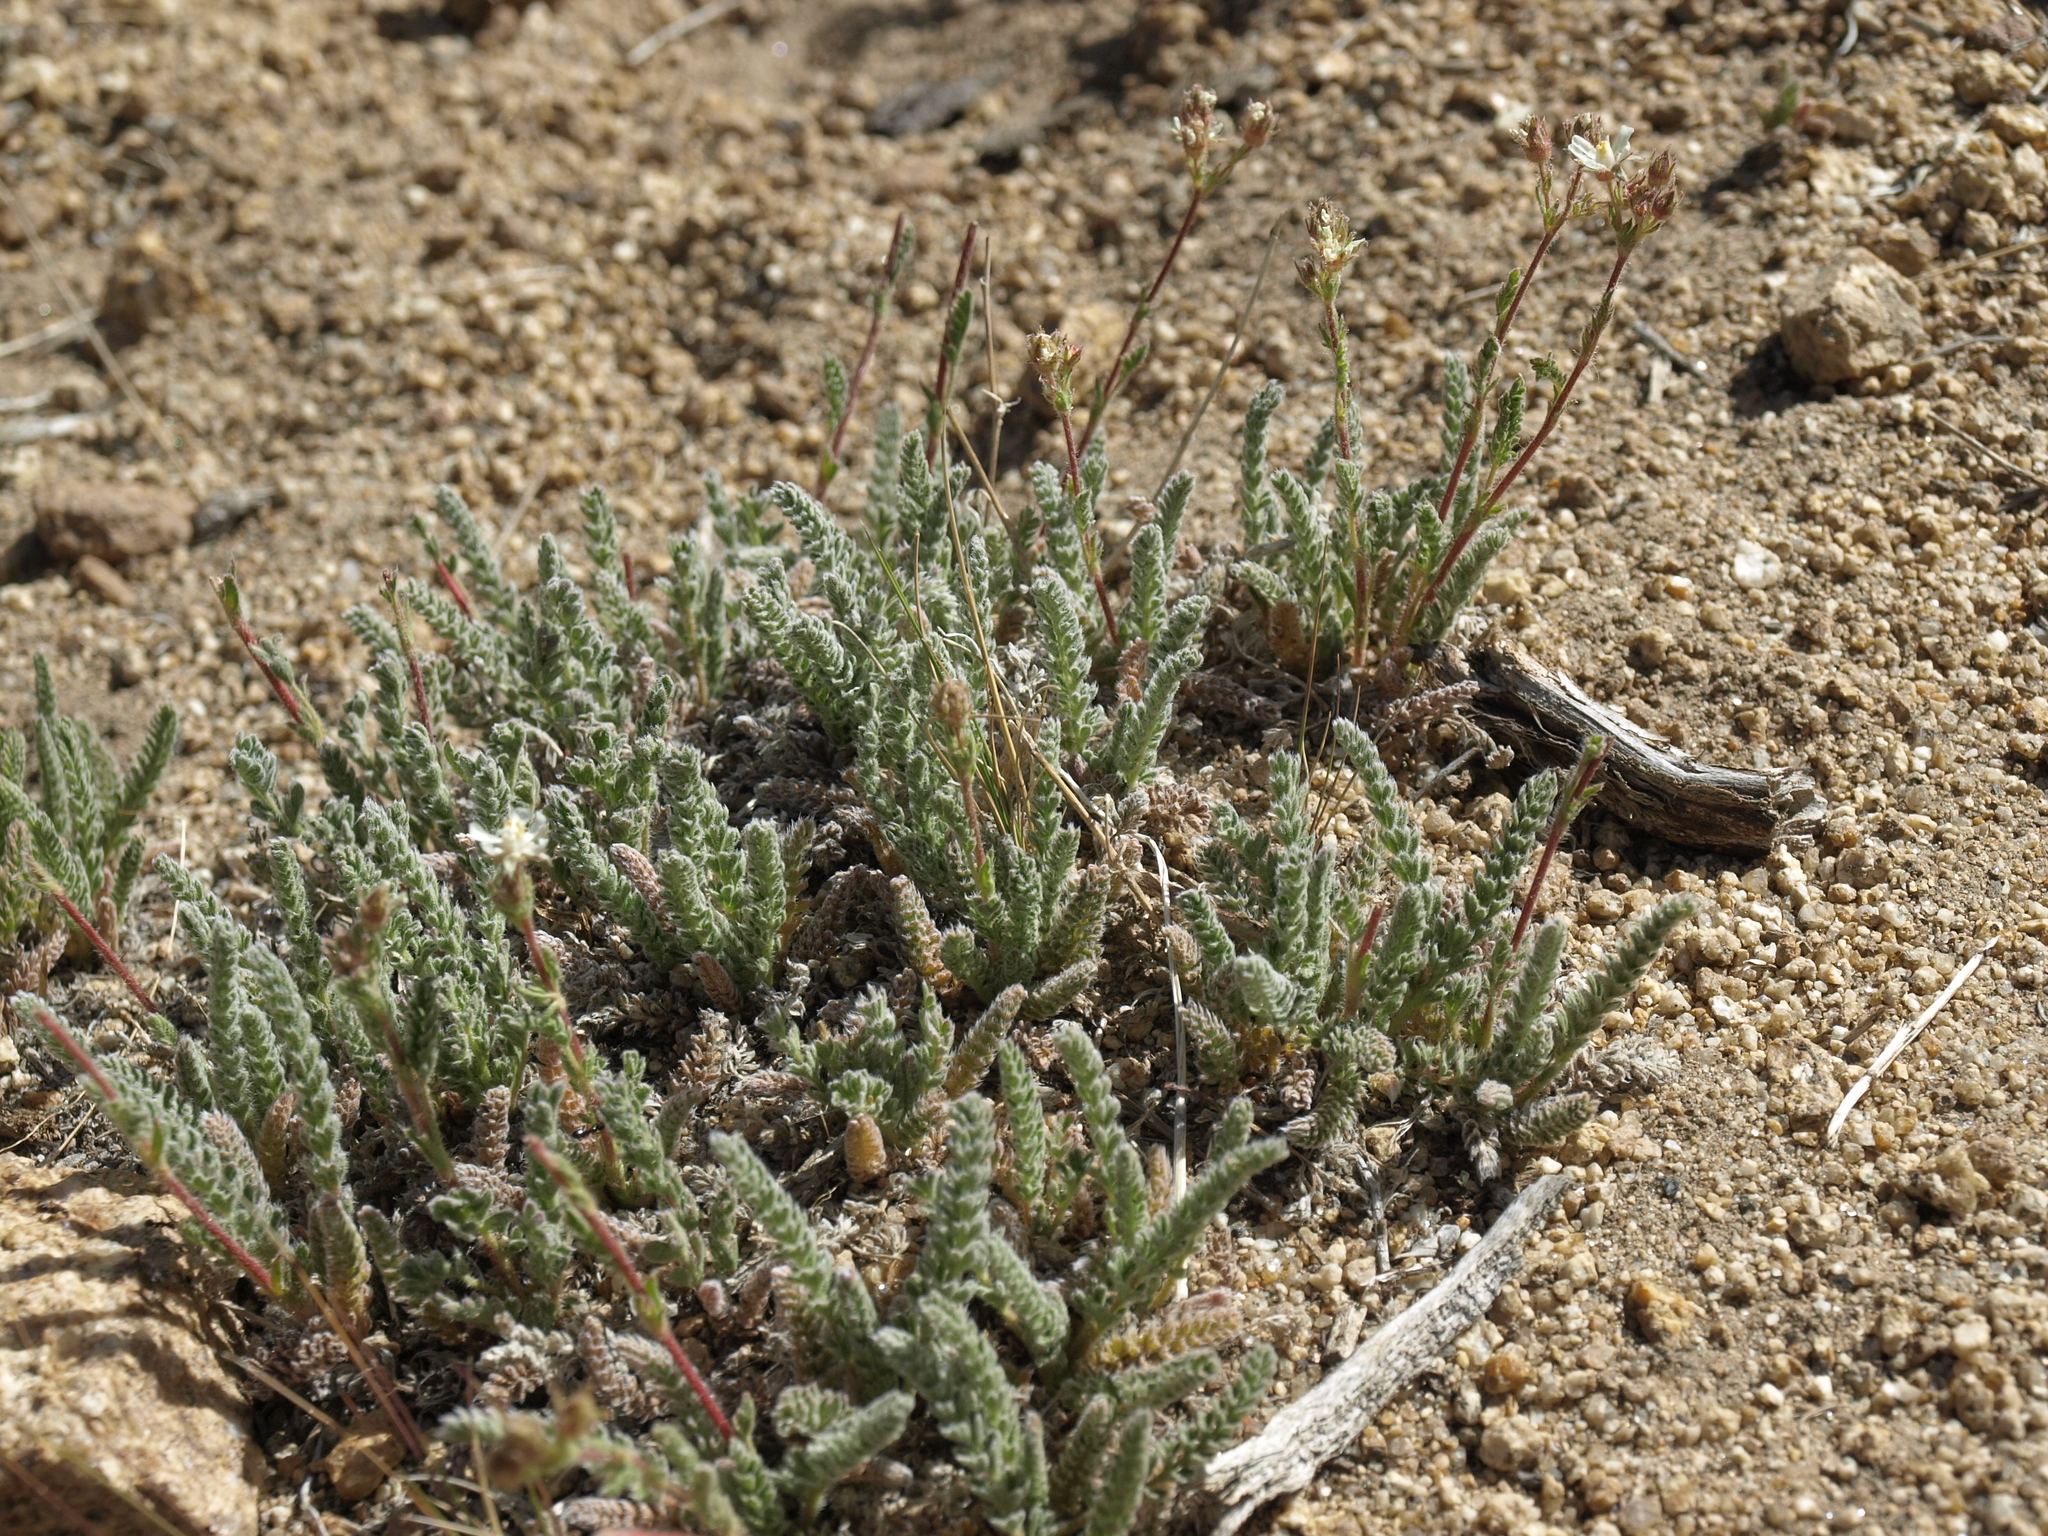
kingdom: Plantae
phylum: Tracheophyta
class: Magnoliopsida
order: Rosales
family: Rosaceae
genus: Potentilla
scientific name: Potentilla hispidula
